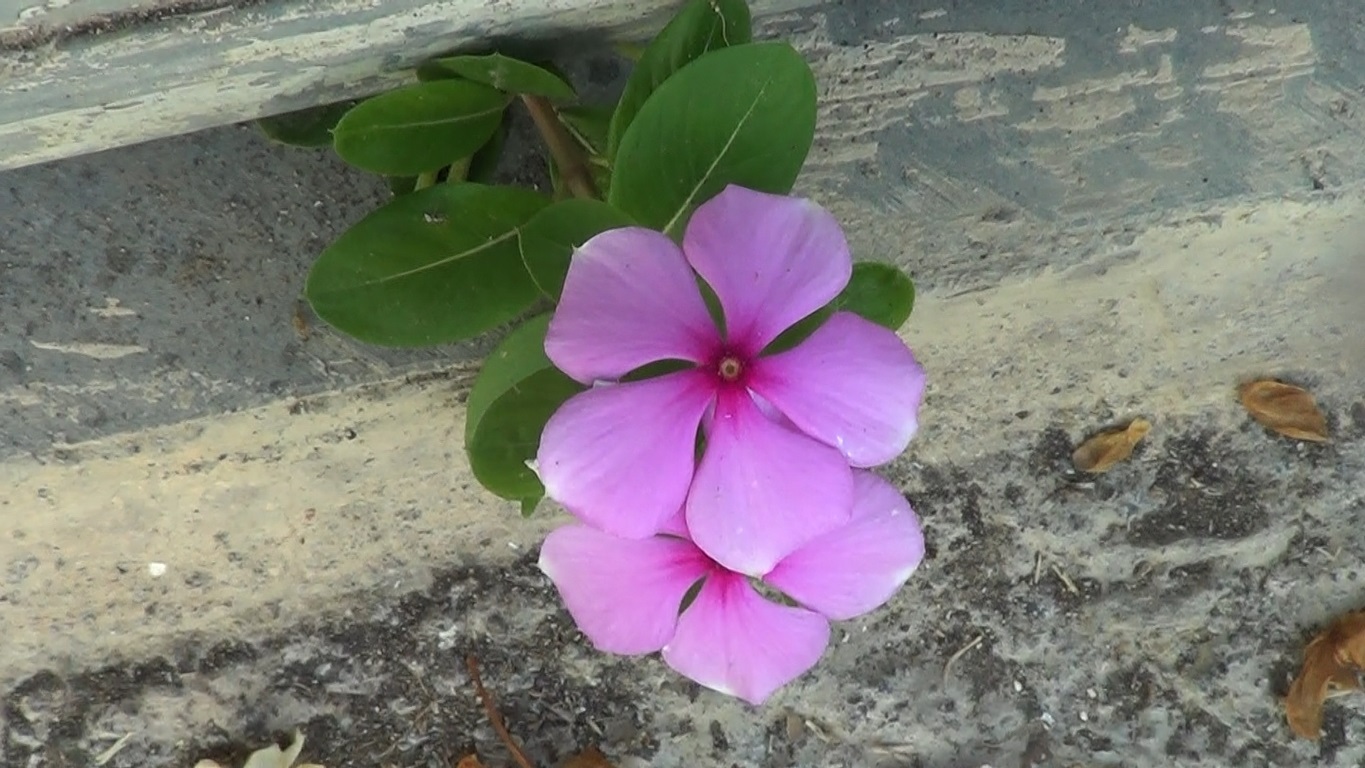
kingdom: Plantae
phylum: Tracheophyta
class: Magnoliopsida
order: Gentianales
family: Apocynaceae
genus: Catharanthus
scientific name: Catharanthus roseus
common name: Madagascar periwinkle
